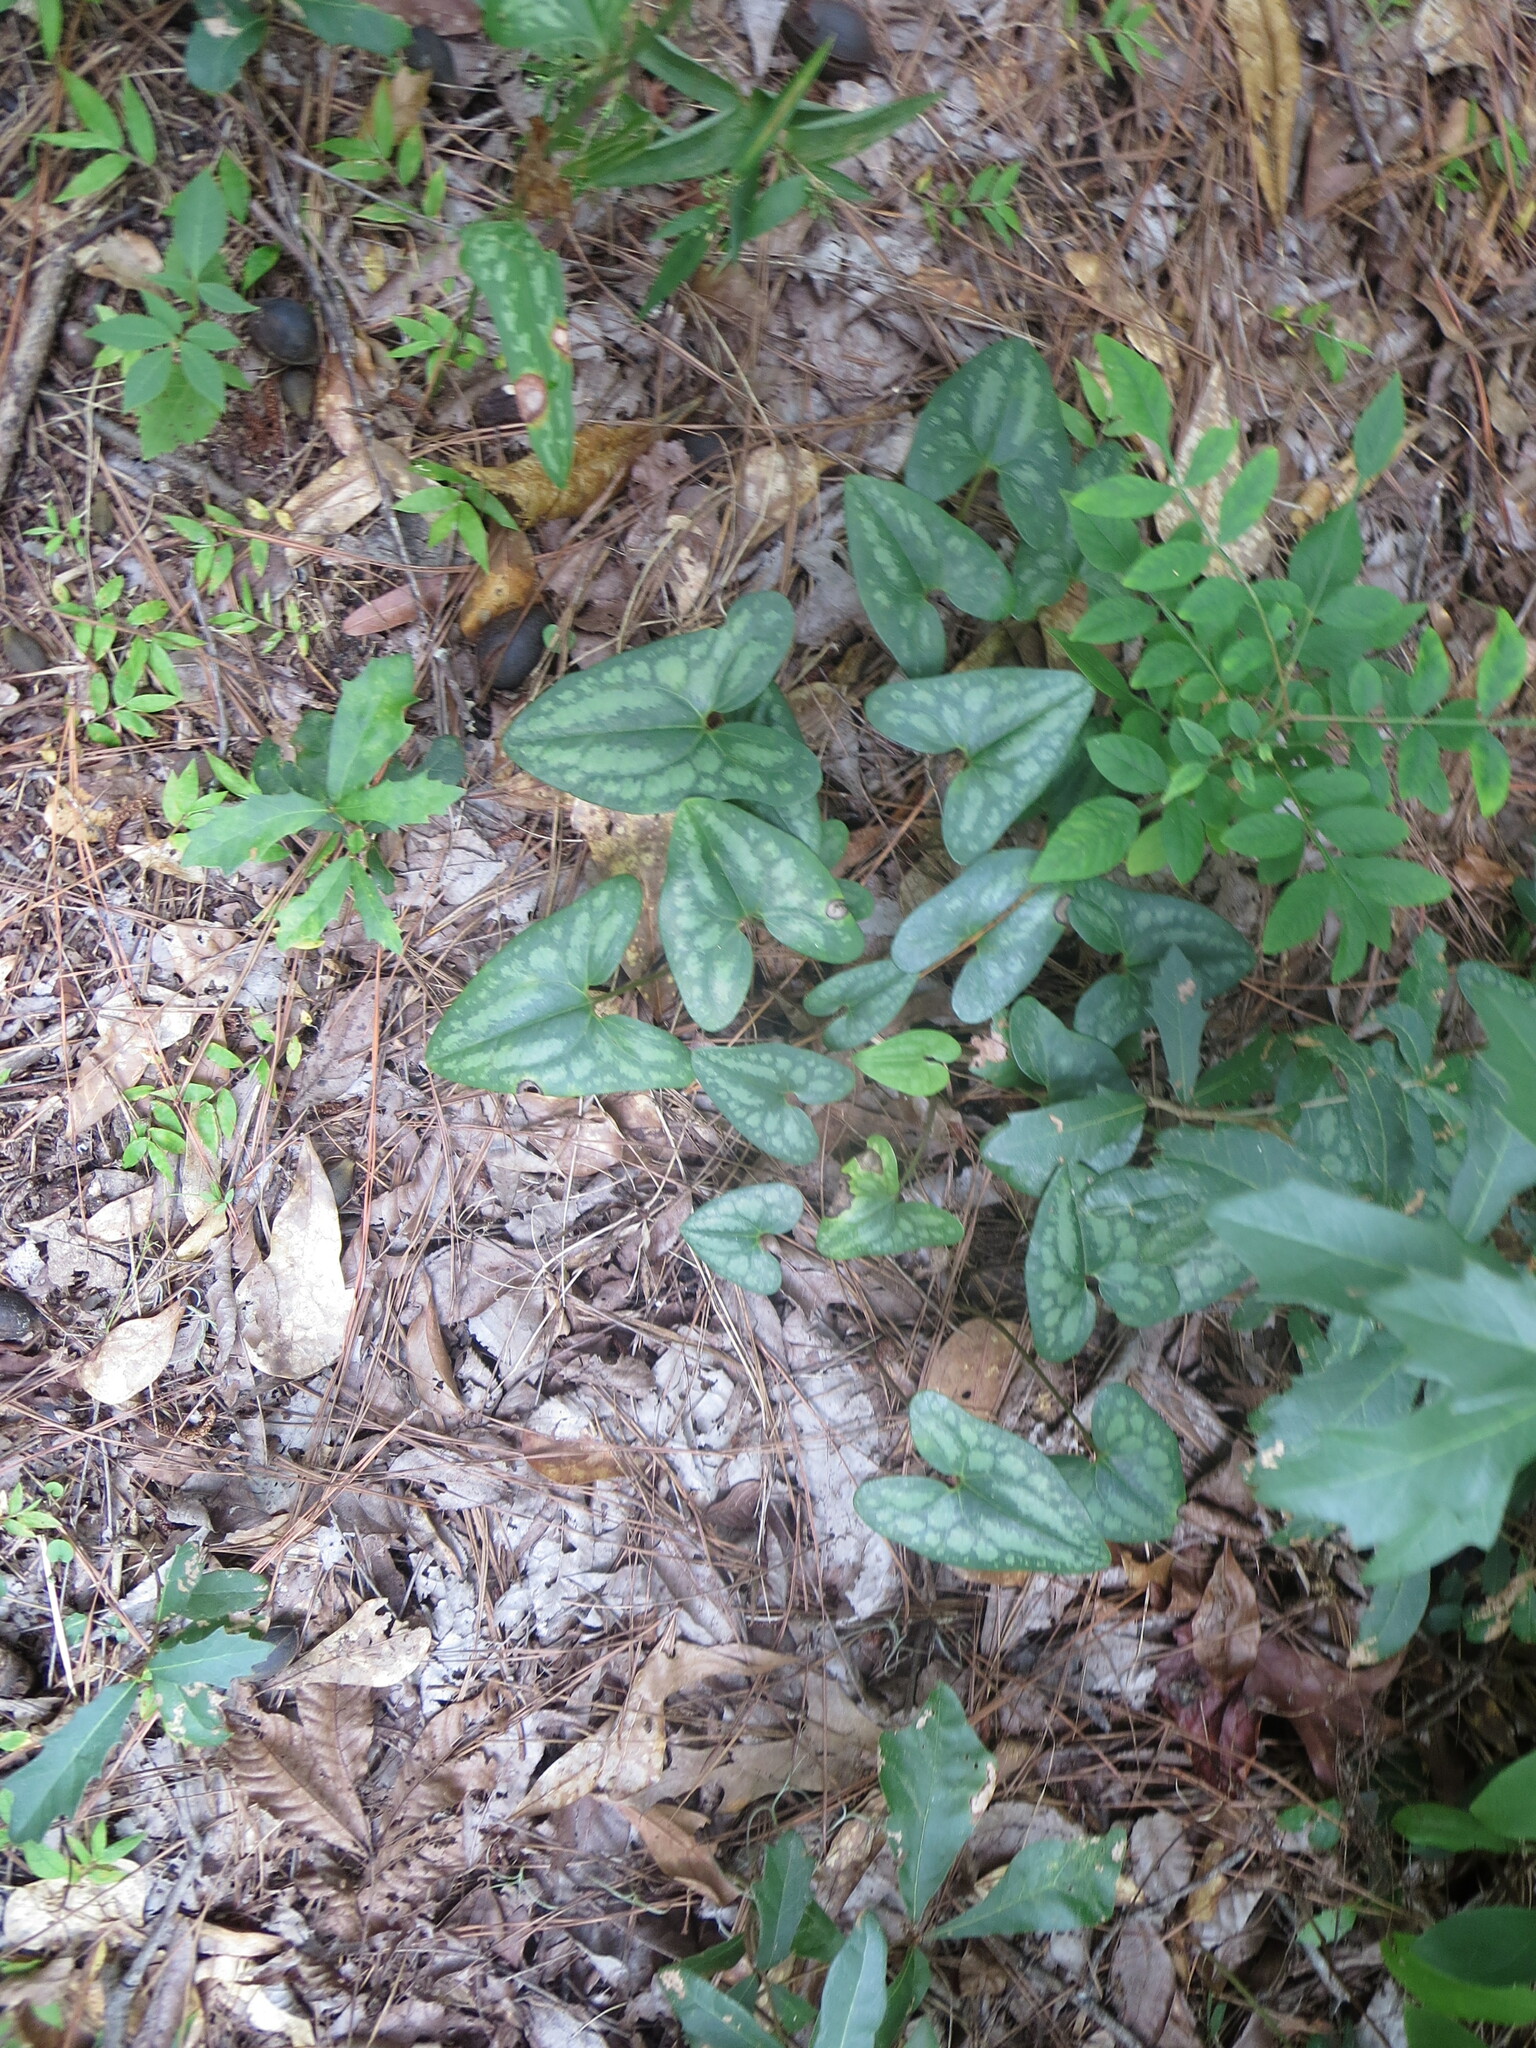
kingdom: Plantae
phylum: Tracheophyta
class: Magnoliopsida
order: Piperales
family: Aristolochiaceae
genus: Hexastylis
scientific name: Hexastylis arifolia
